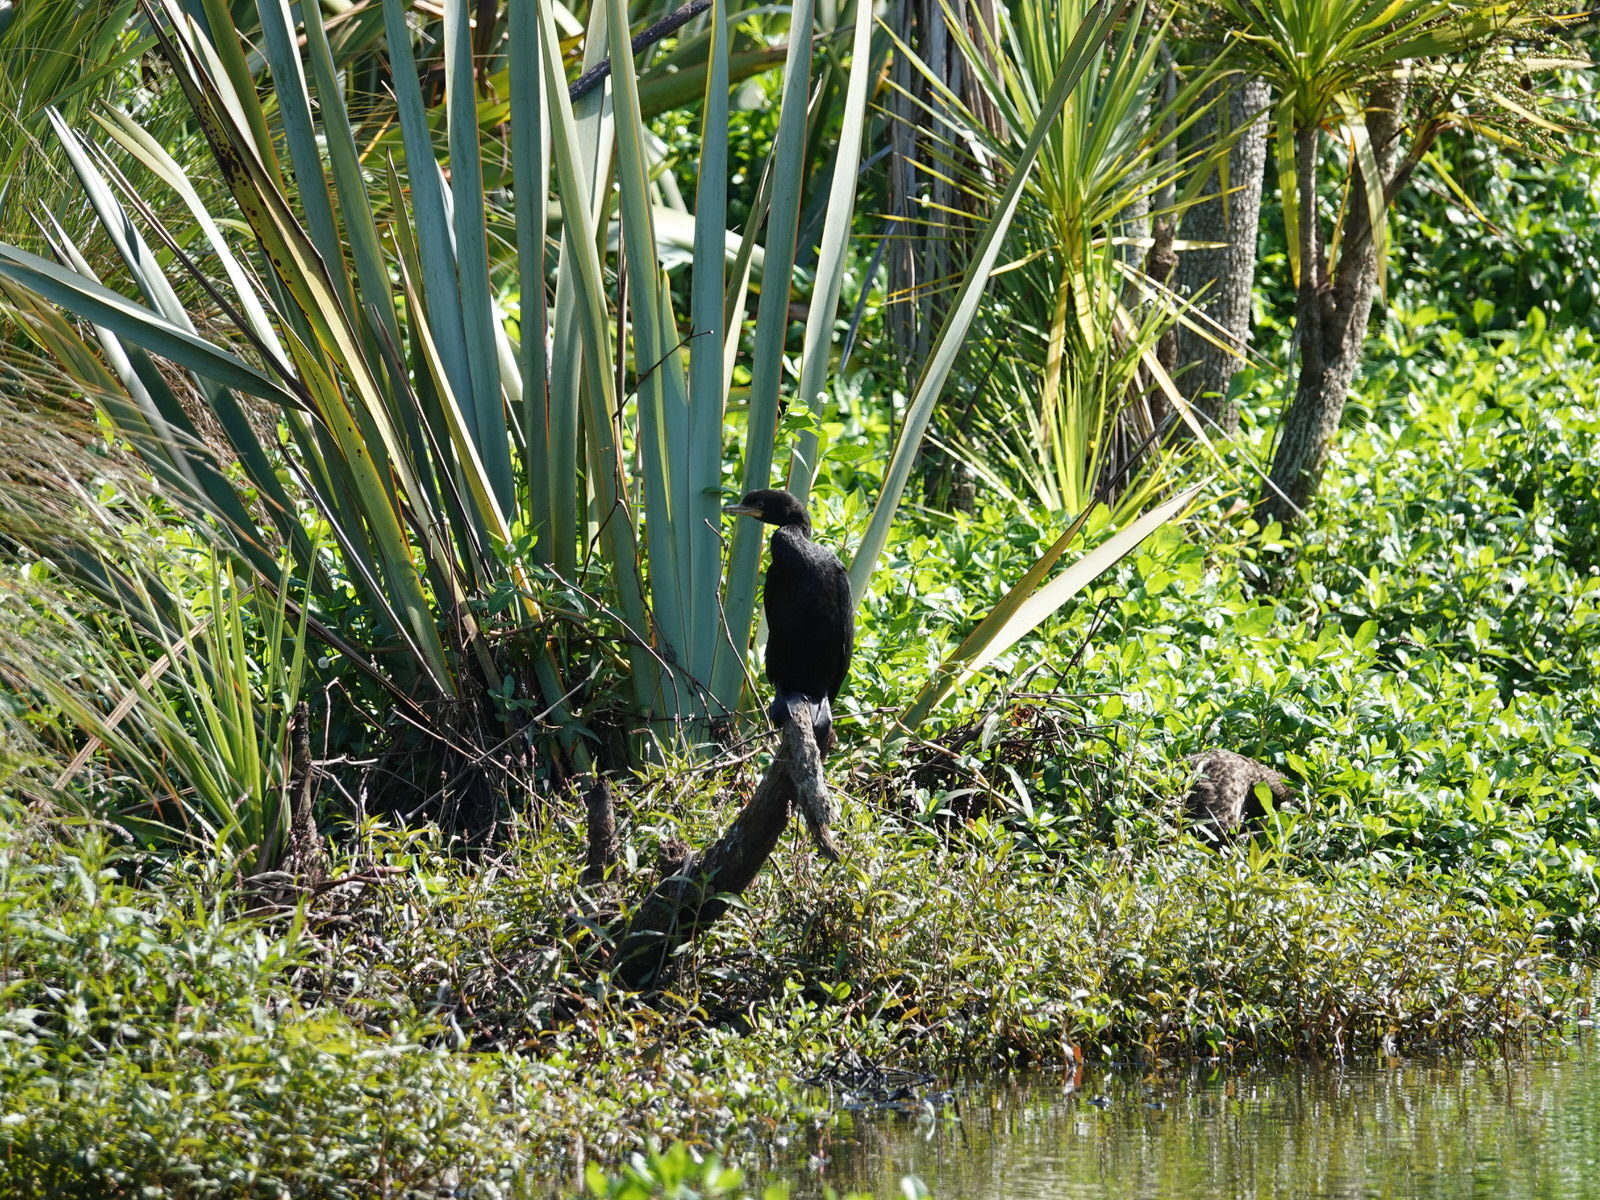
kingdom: Animalia
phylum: Chordata
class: Aves
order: Suliformes
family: Phalacrocoracidae
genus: Microcarbo
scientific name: Microcarbo melanoleucos
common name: Little pied cormorant
